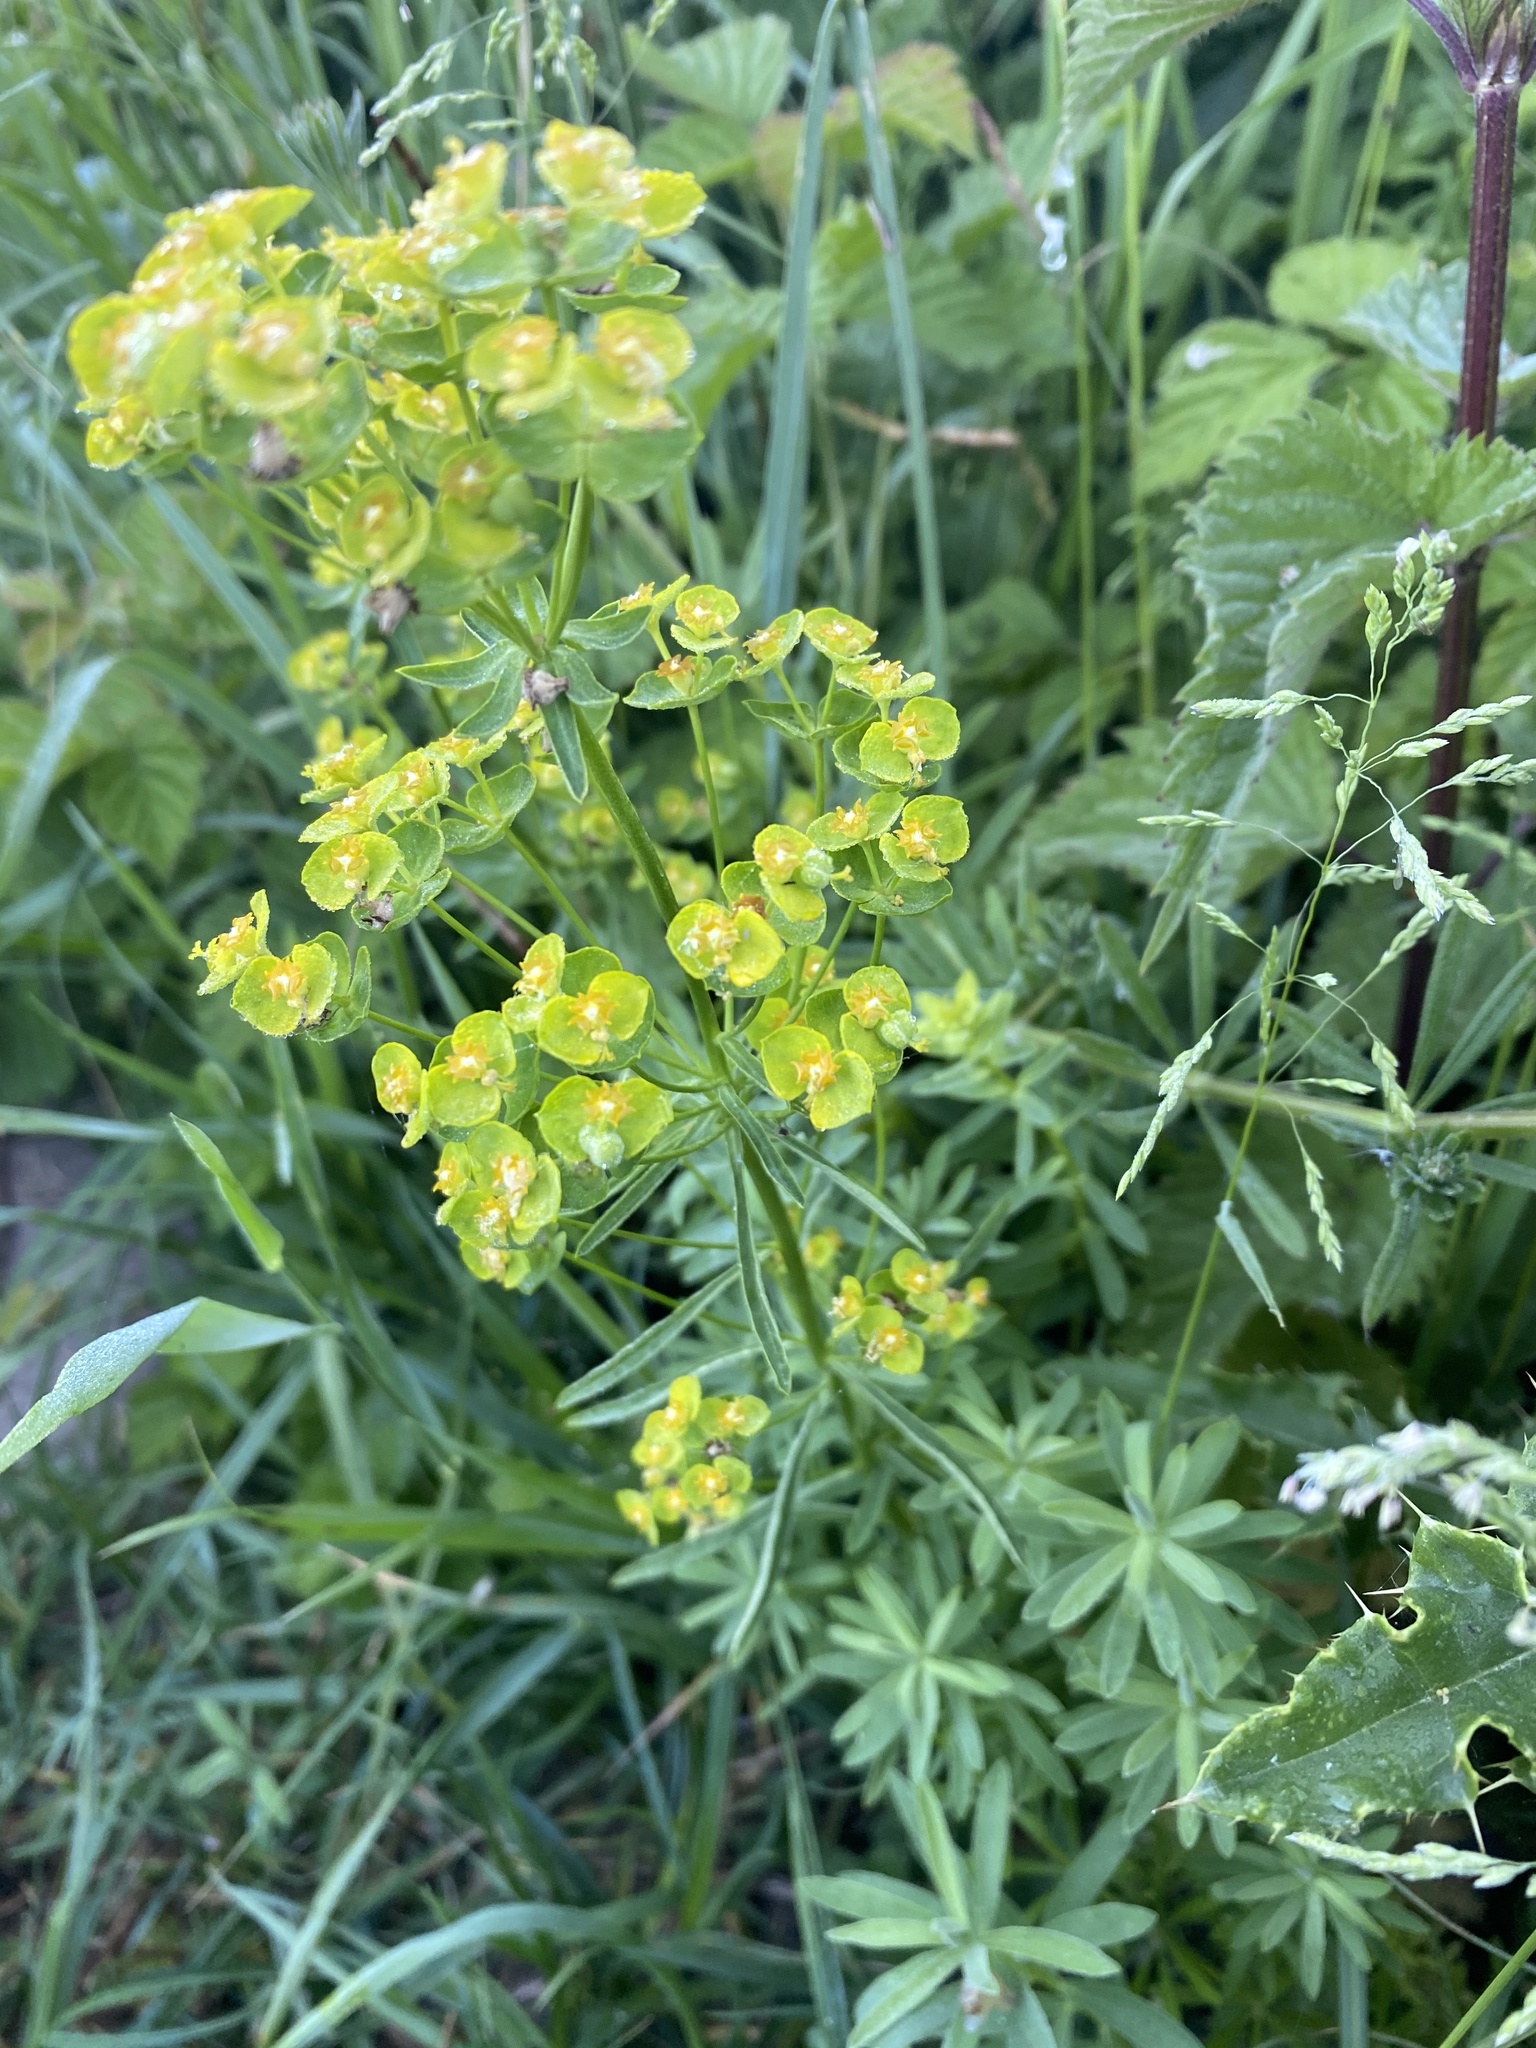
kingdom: Plantae
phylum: Tracheophyta
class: Magnoliopsida
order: Malpighiales
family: Euphorbiaceae
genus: Euphorbia
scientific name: Euphorbia esula
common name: Leafy spurge
